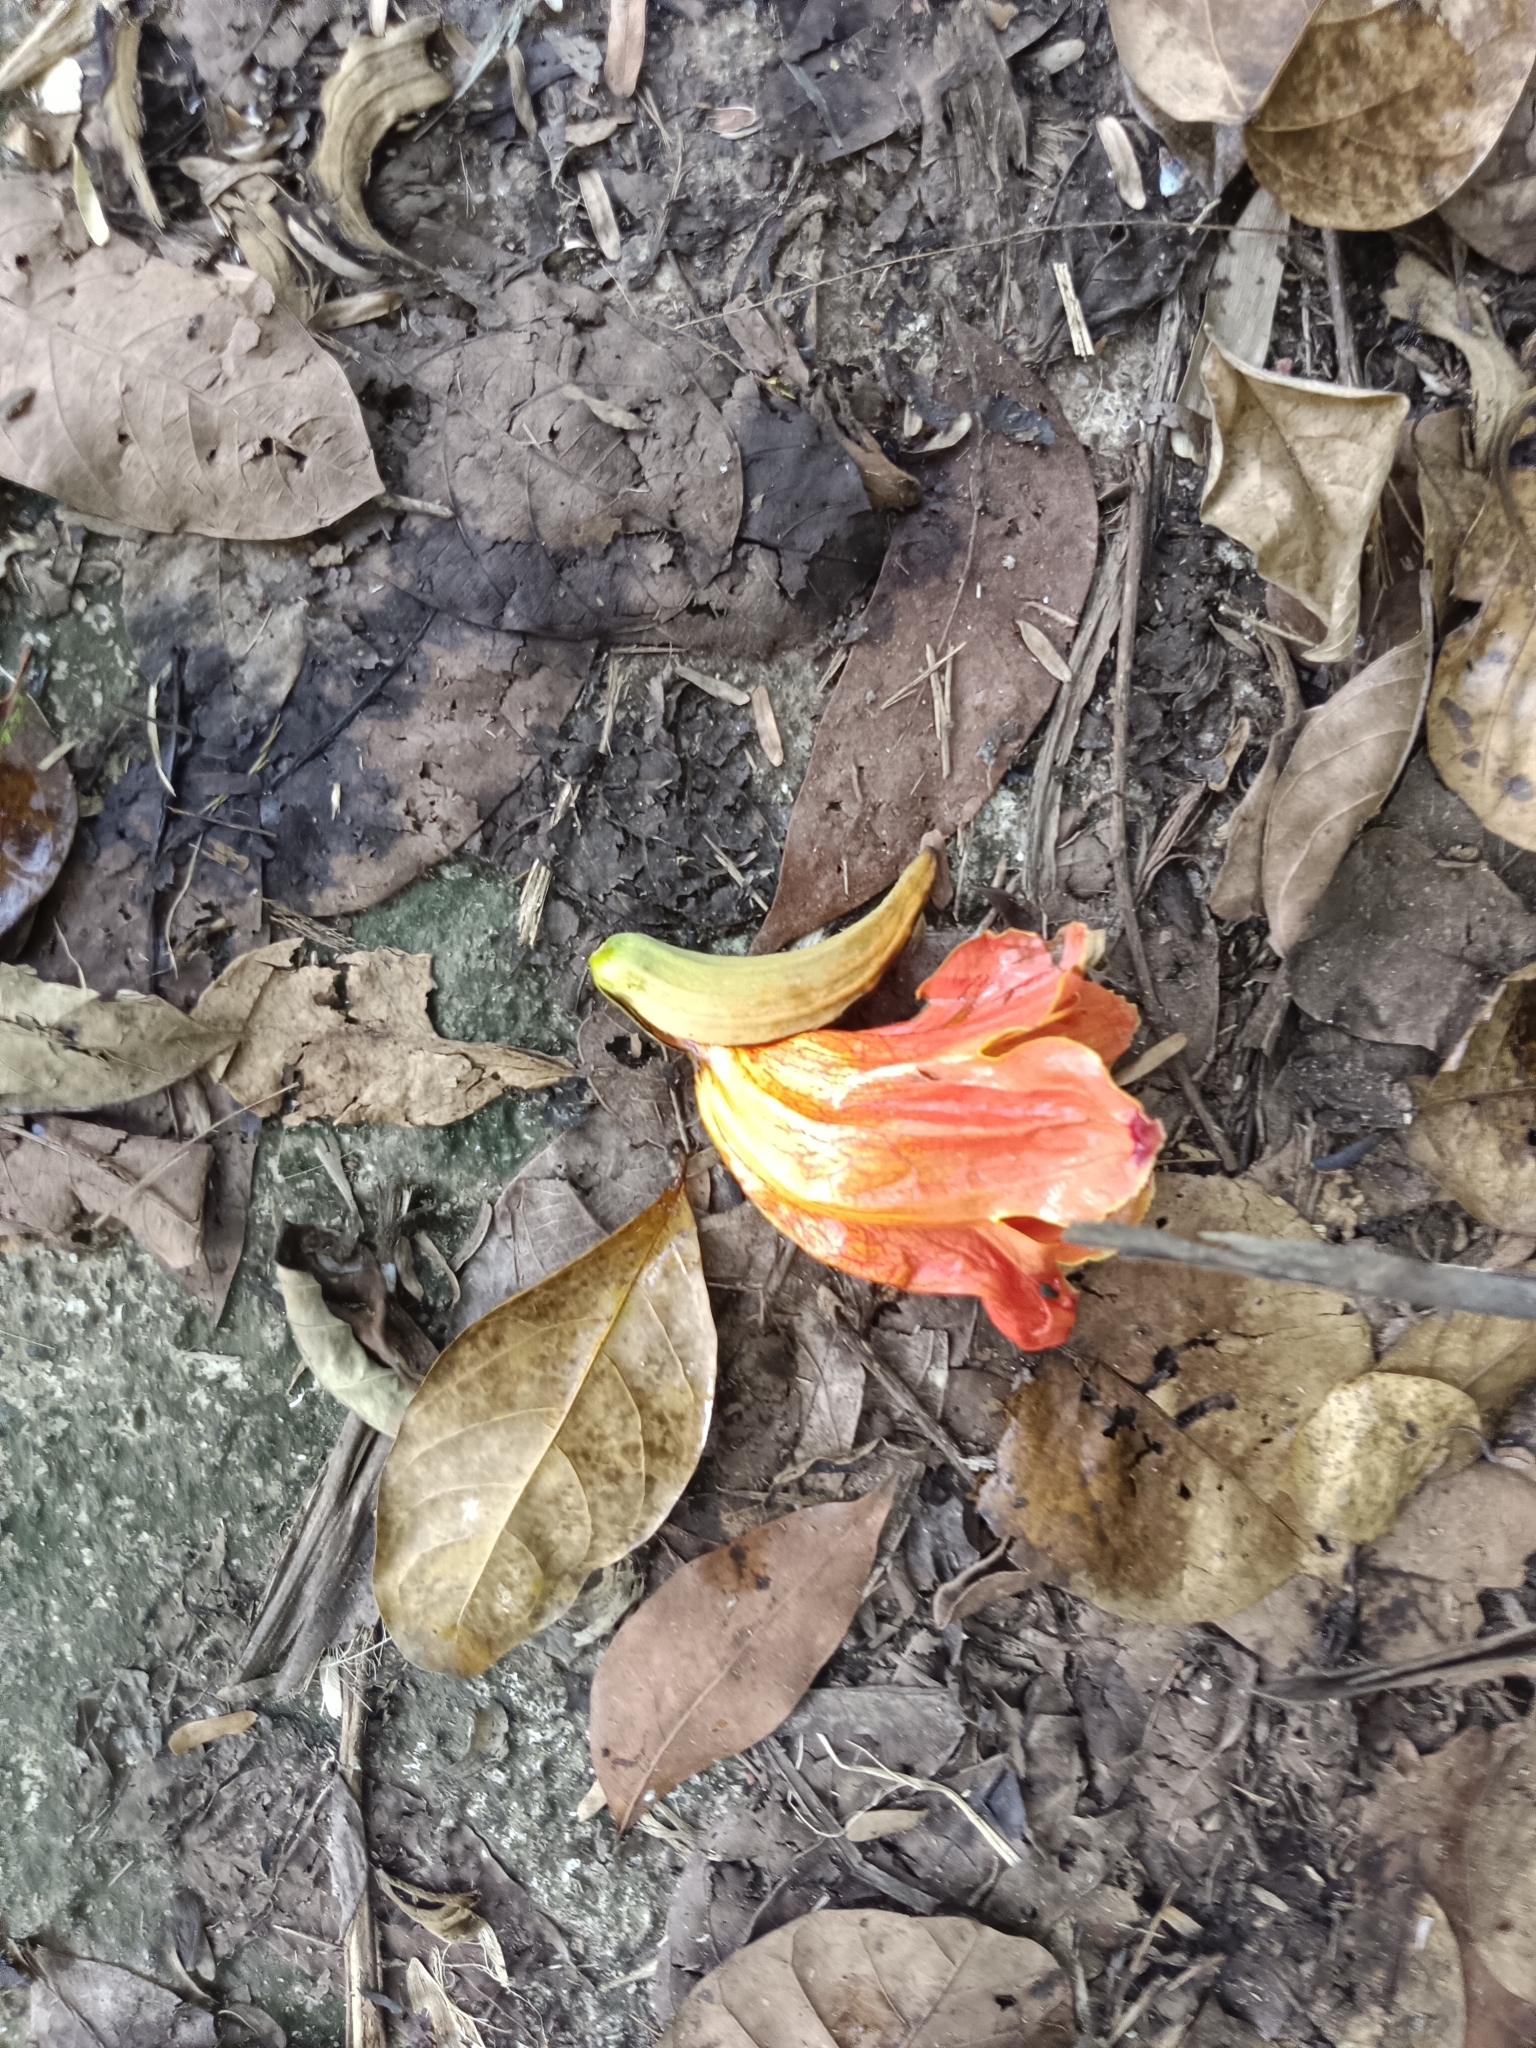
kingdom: Plantae
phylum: Tracheophyta
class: Magnoliopsida
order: Lamiales
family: Bignoniaceae
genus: Spathodea
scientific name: Spathodea campanulata
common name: African tuliptree
